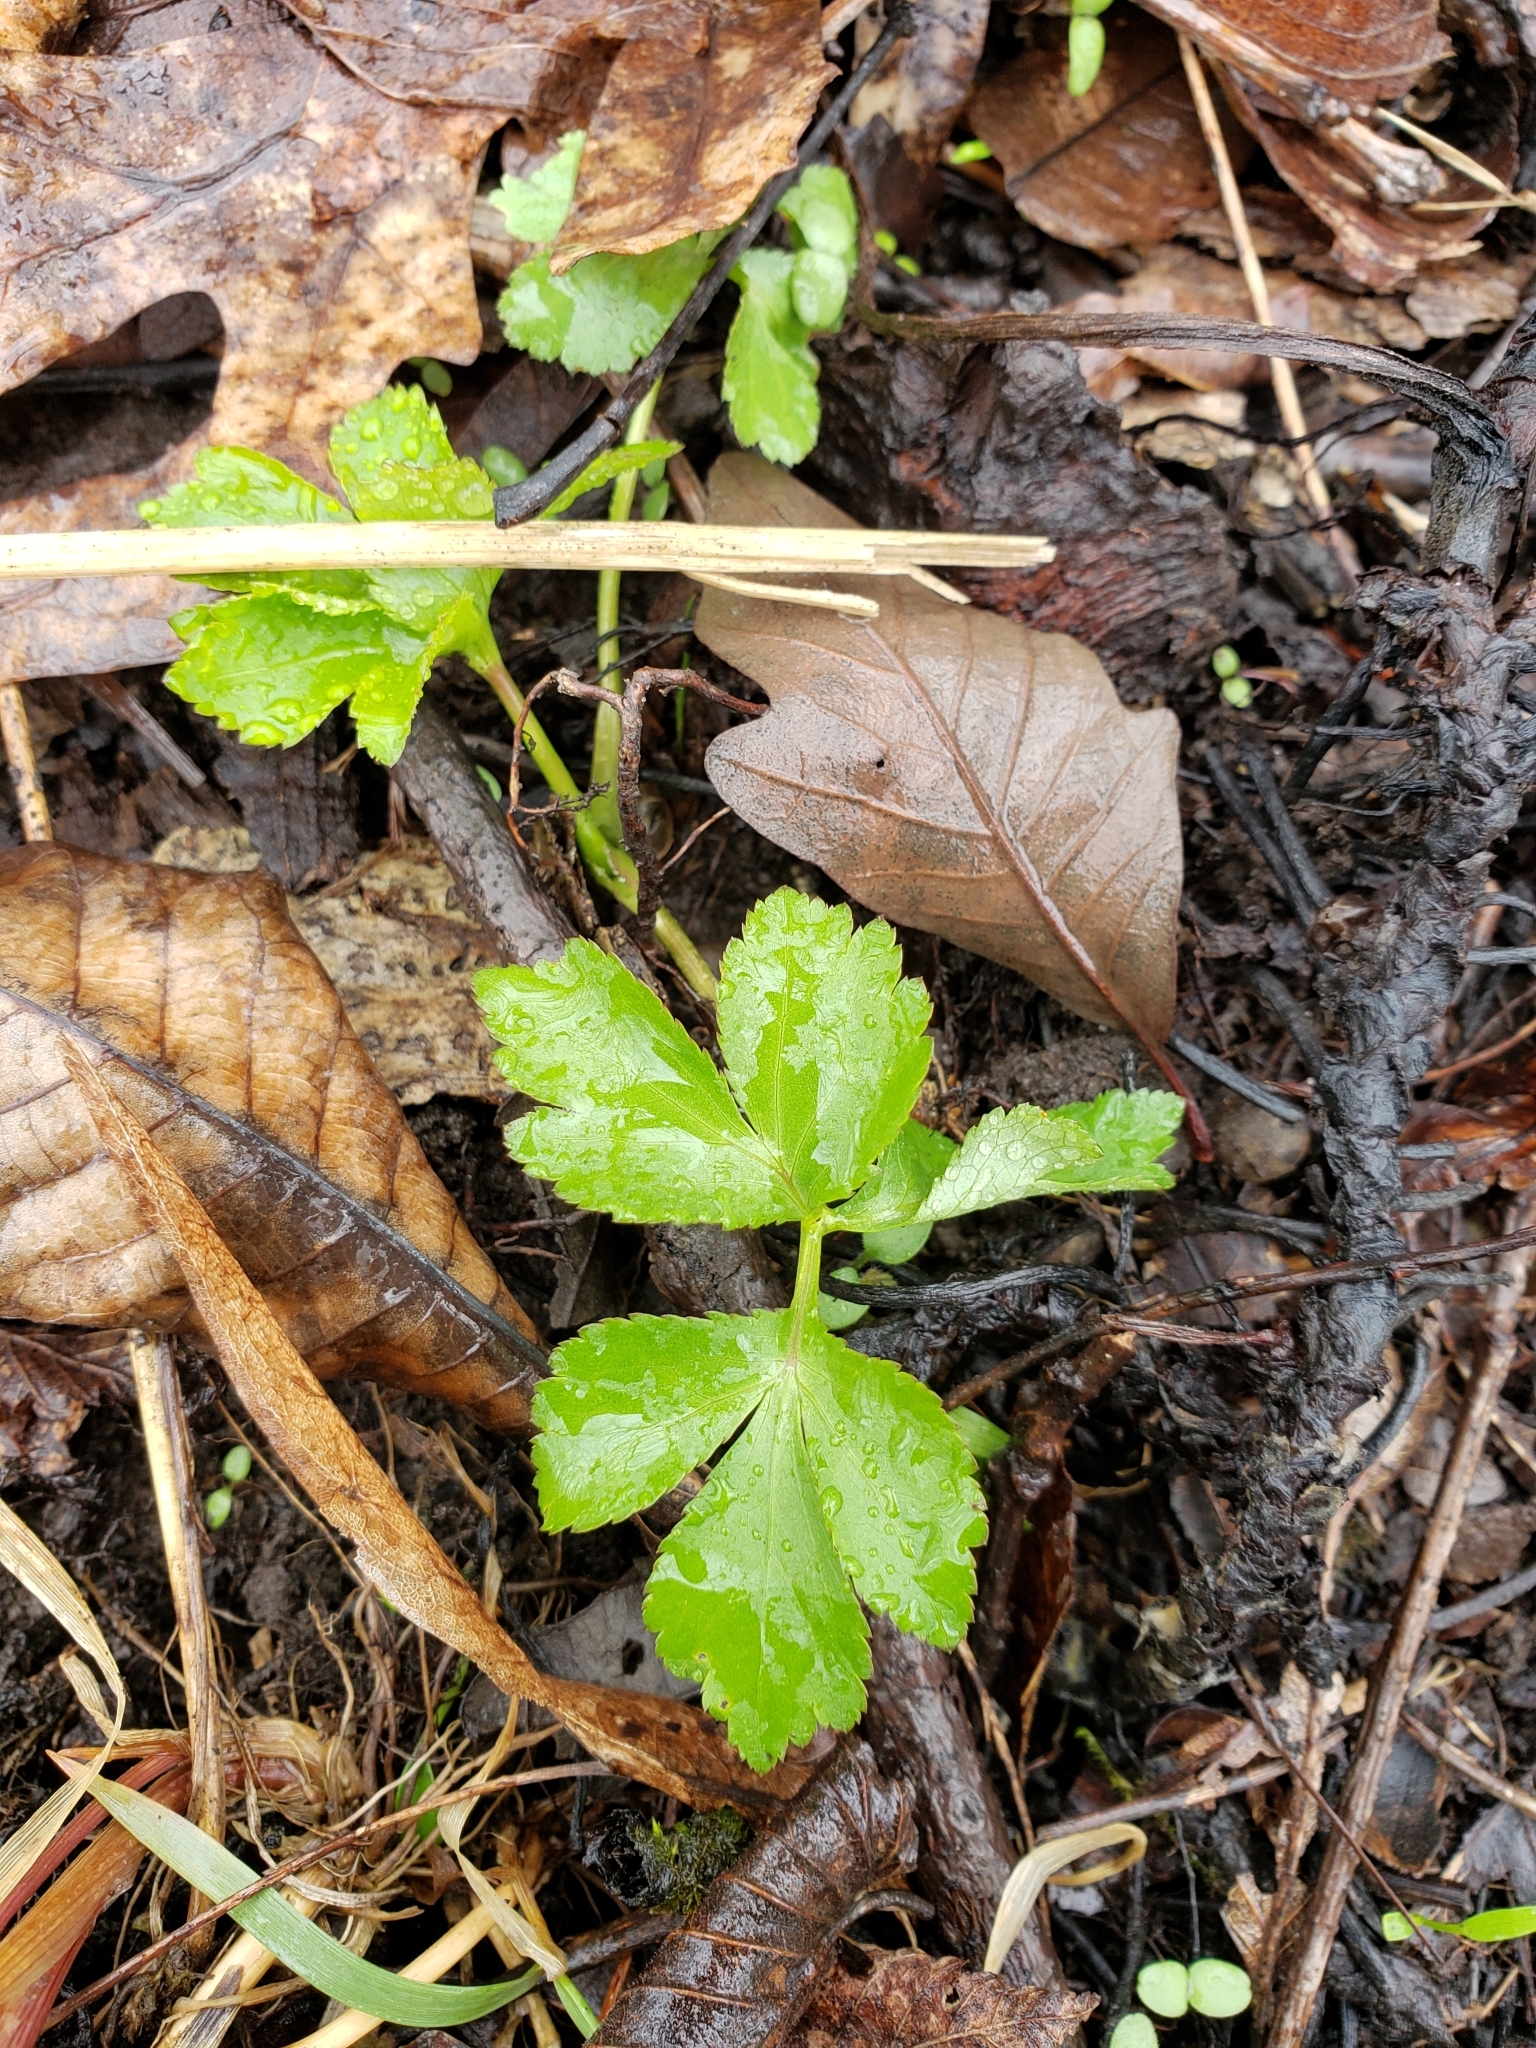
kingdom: Plantae
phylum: Tracheophyta
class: Magnoliopsida
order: Apiales
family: Apiaceae
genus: Cryptotaenia
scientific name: Cryptotaenia canadensis
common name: Honewort
